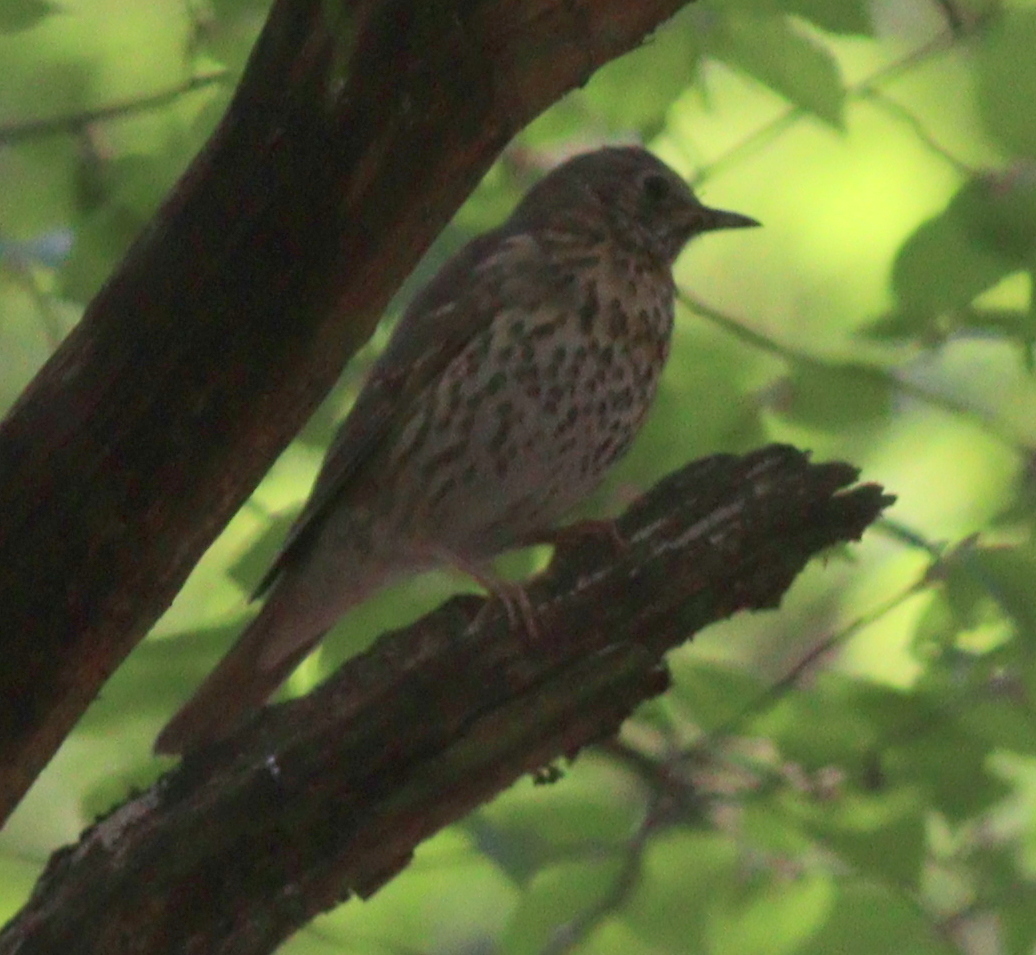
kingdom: Animalia
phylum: Chordata
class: Aves
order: Passeriformes
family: Turdidae
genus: Turdus
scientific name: Turdus philomelos
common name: Song thrush
